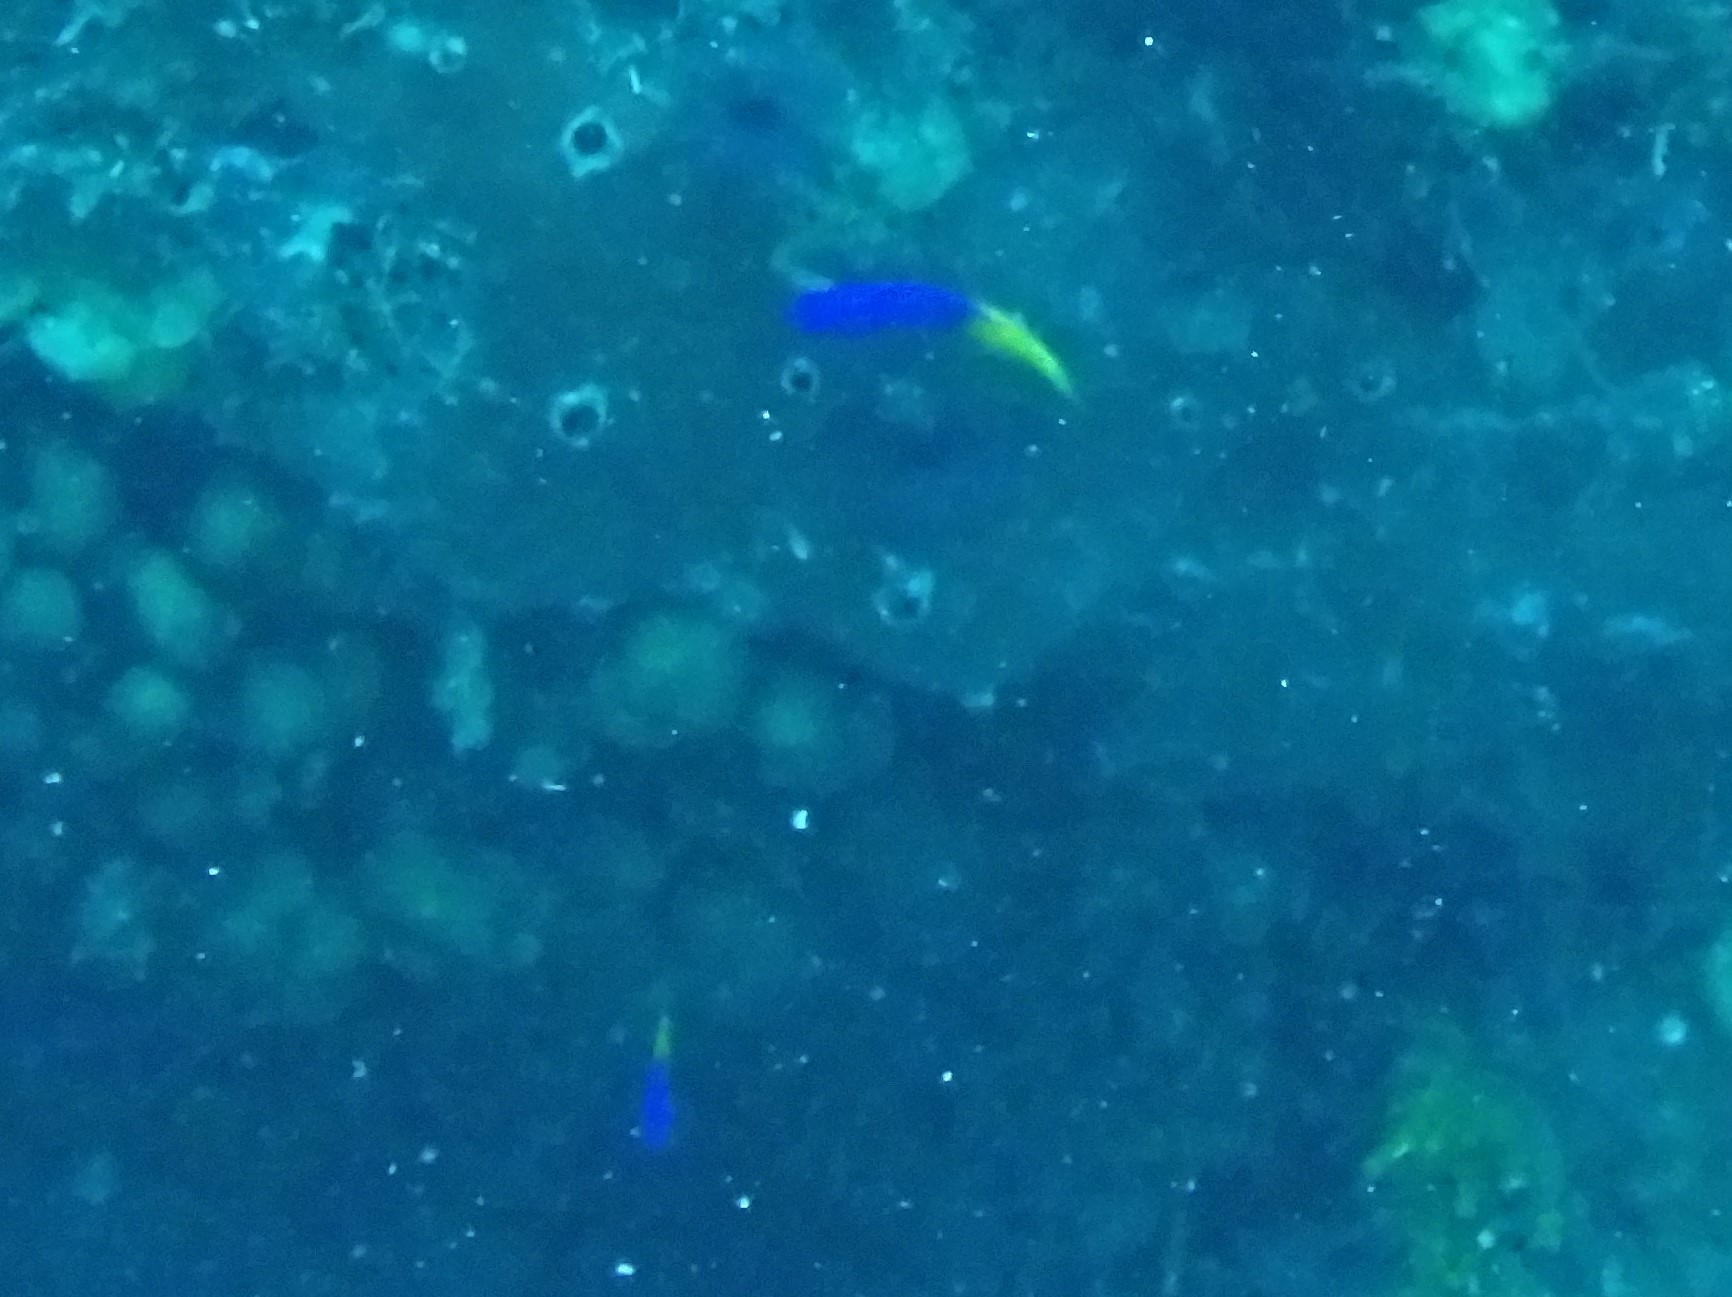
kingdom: Animalia
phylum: Chordata
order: Perciformes
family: Grammatidae
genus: Gramma
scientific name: Gramma loreto
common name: Fairy basslet
